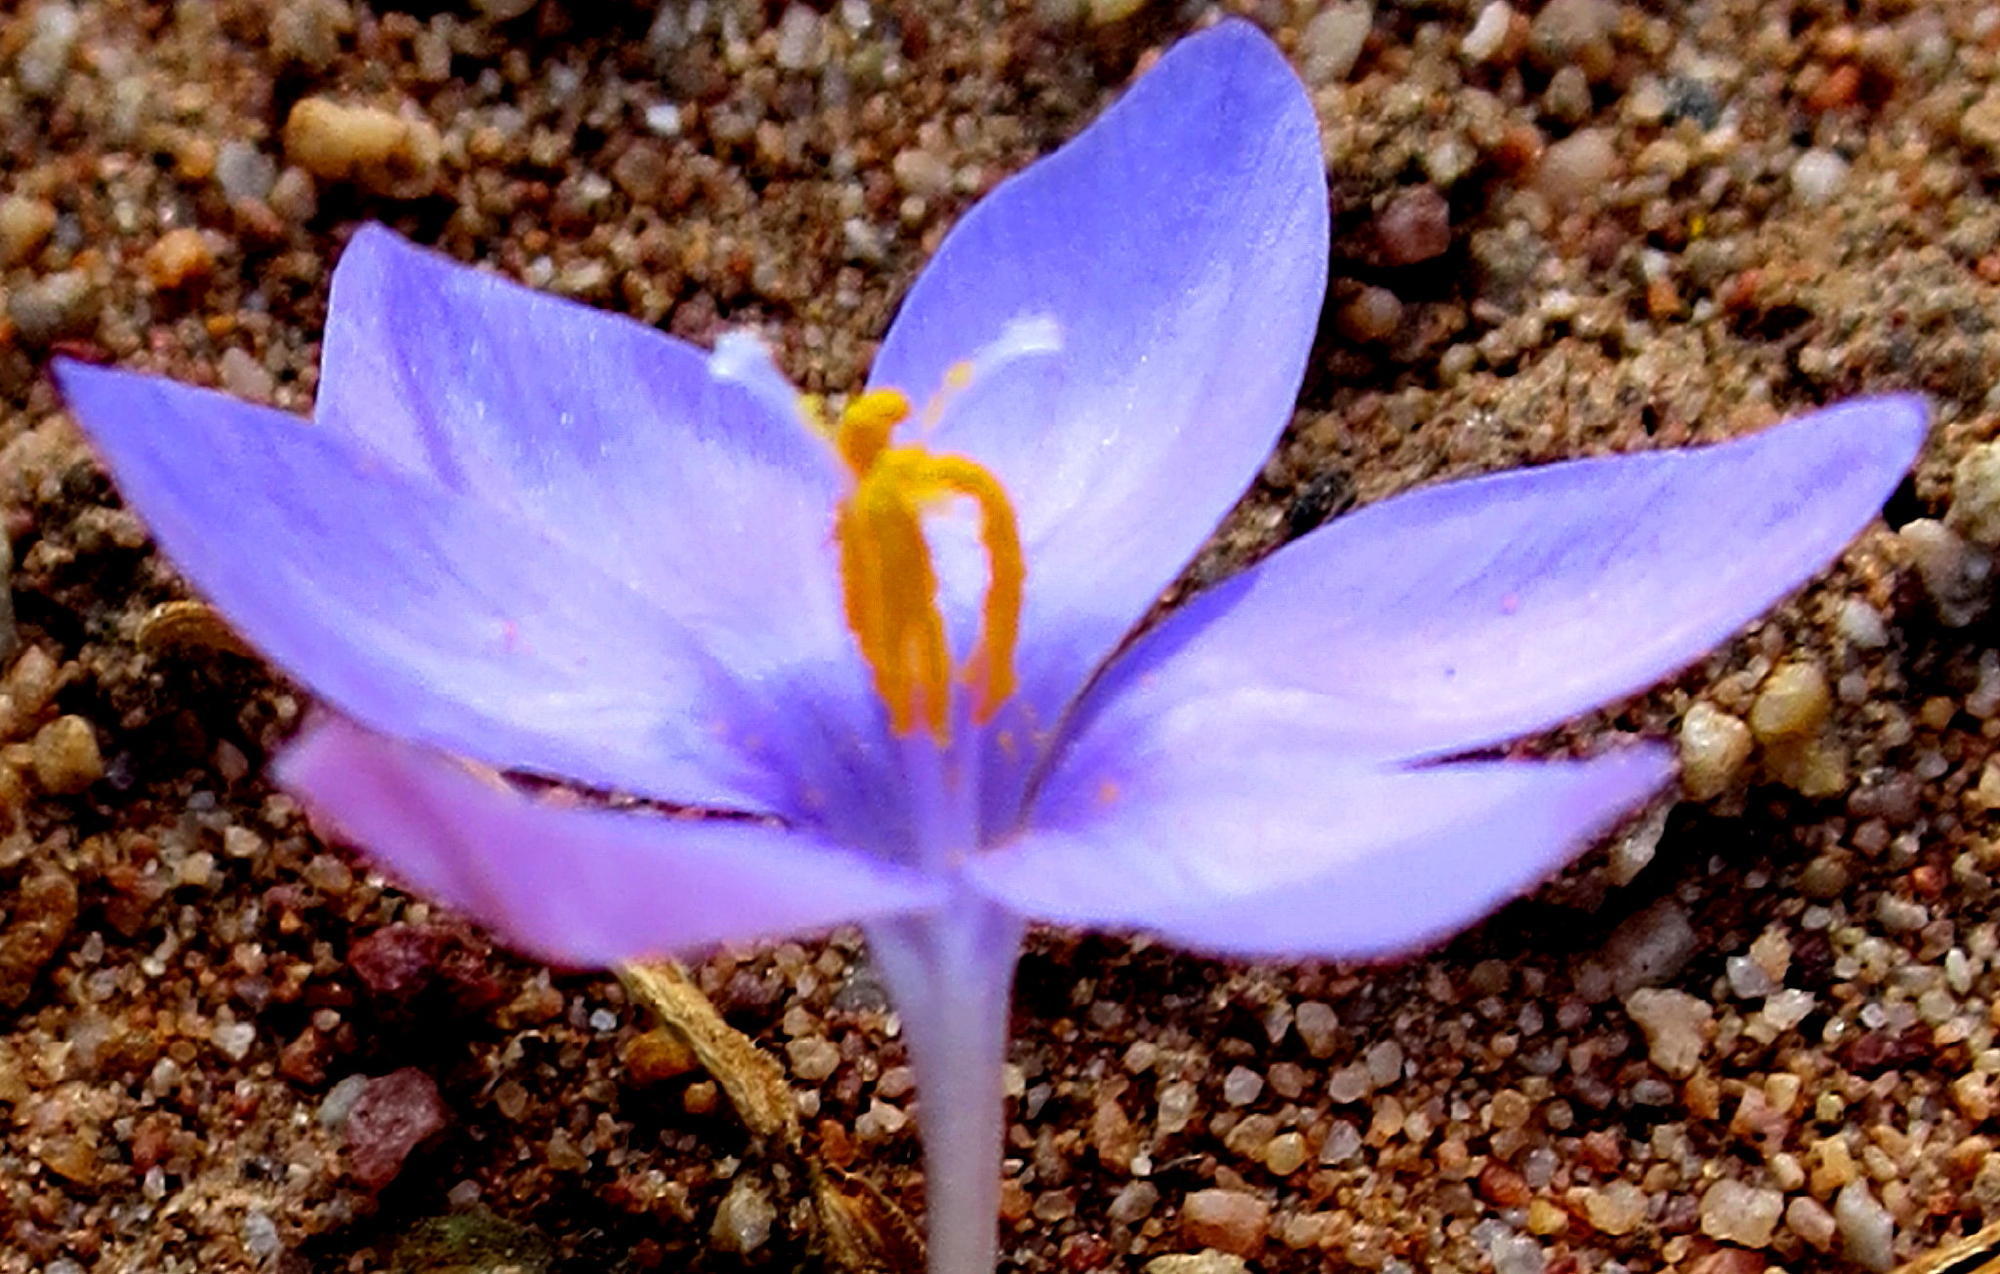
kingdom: Plantae
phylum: Tracheophyta
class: Liliopsida
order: Asparagales
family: Iridaceae
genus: Syringodea
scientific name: Syringodea derustensis
